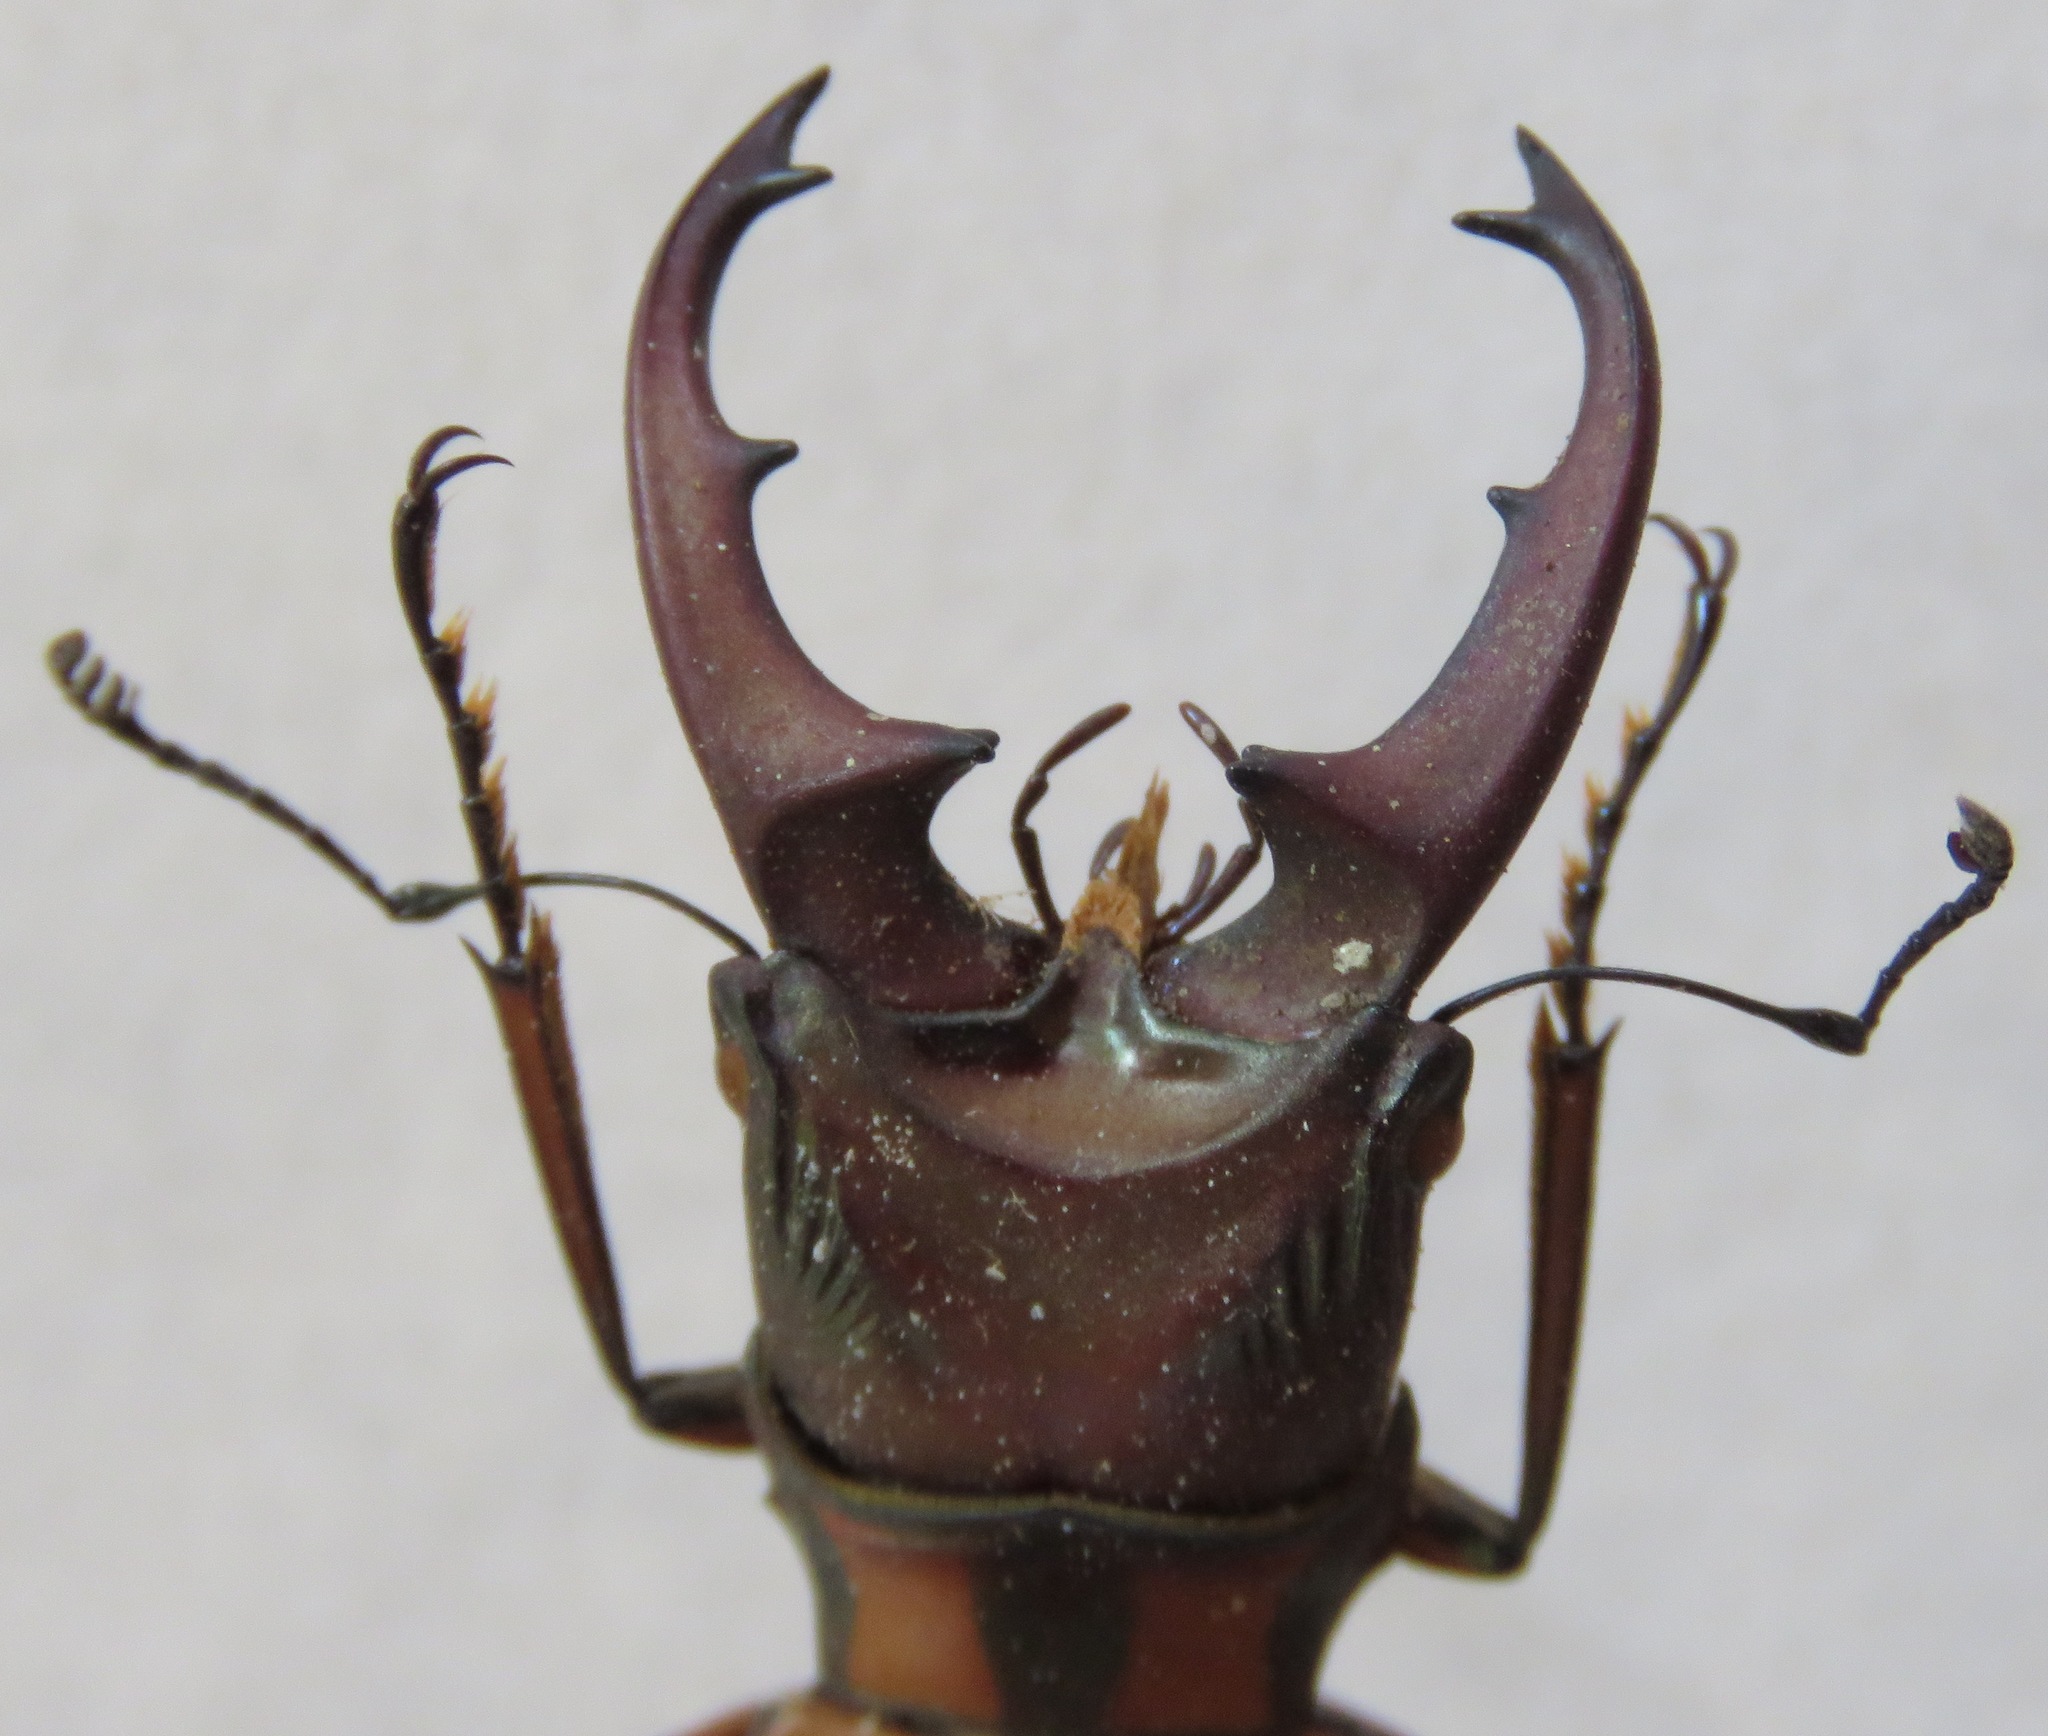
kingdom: Animalia
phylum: Arthropoda
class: Insecta
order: Coleoptera
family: Lucanidae
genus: Cyclommatinus
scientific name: Cyclommatinus albersii
